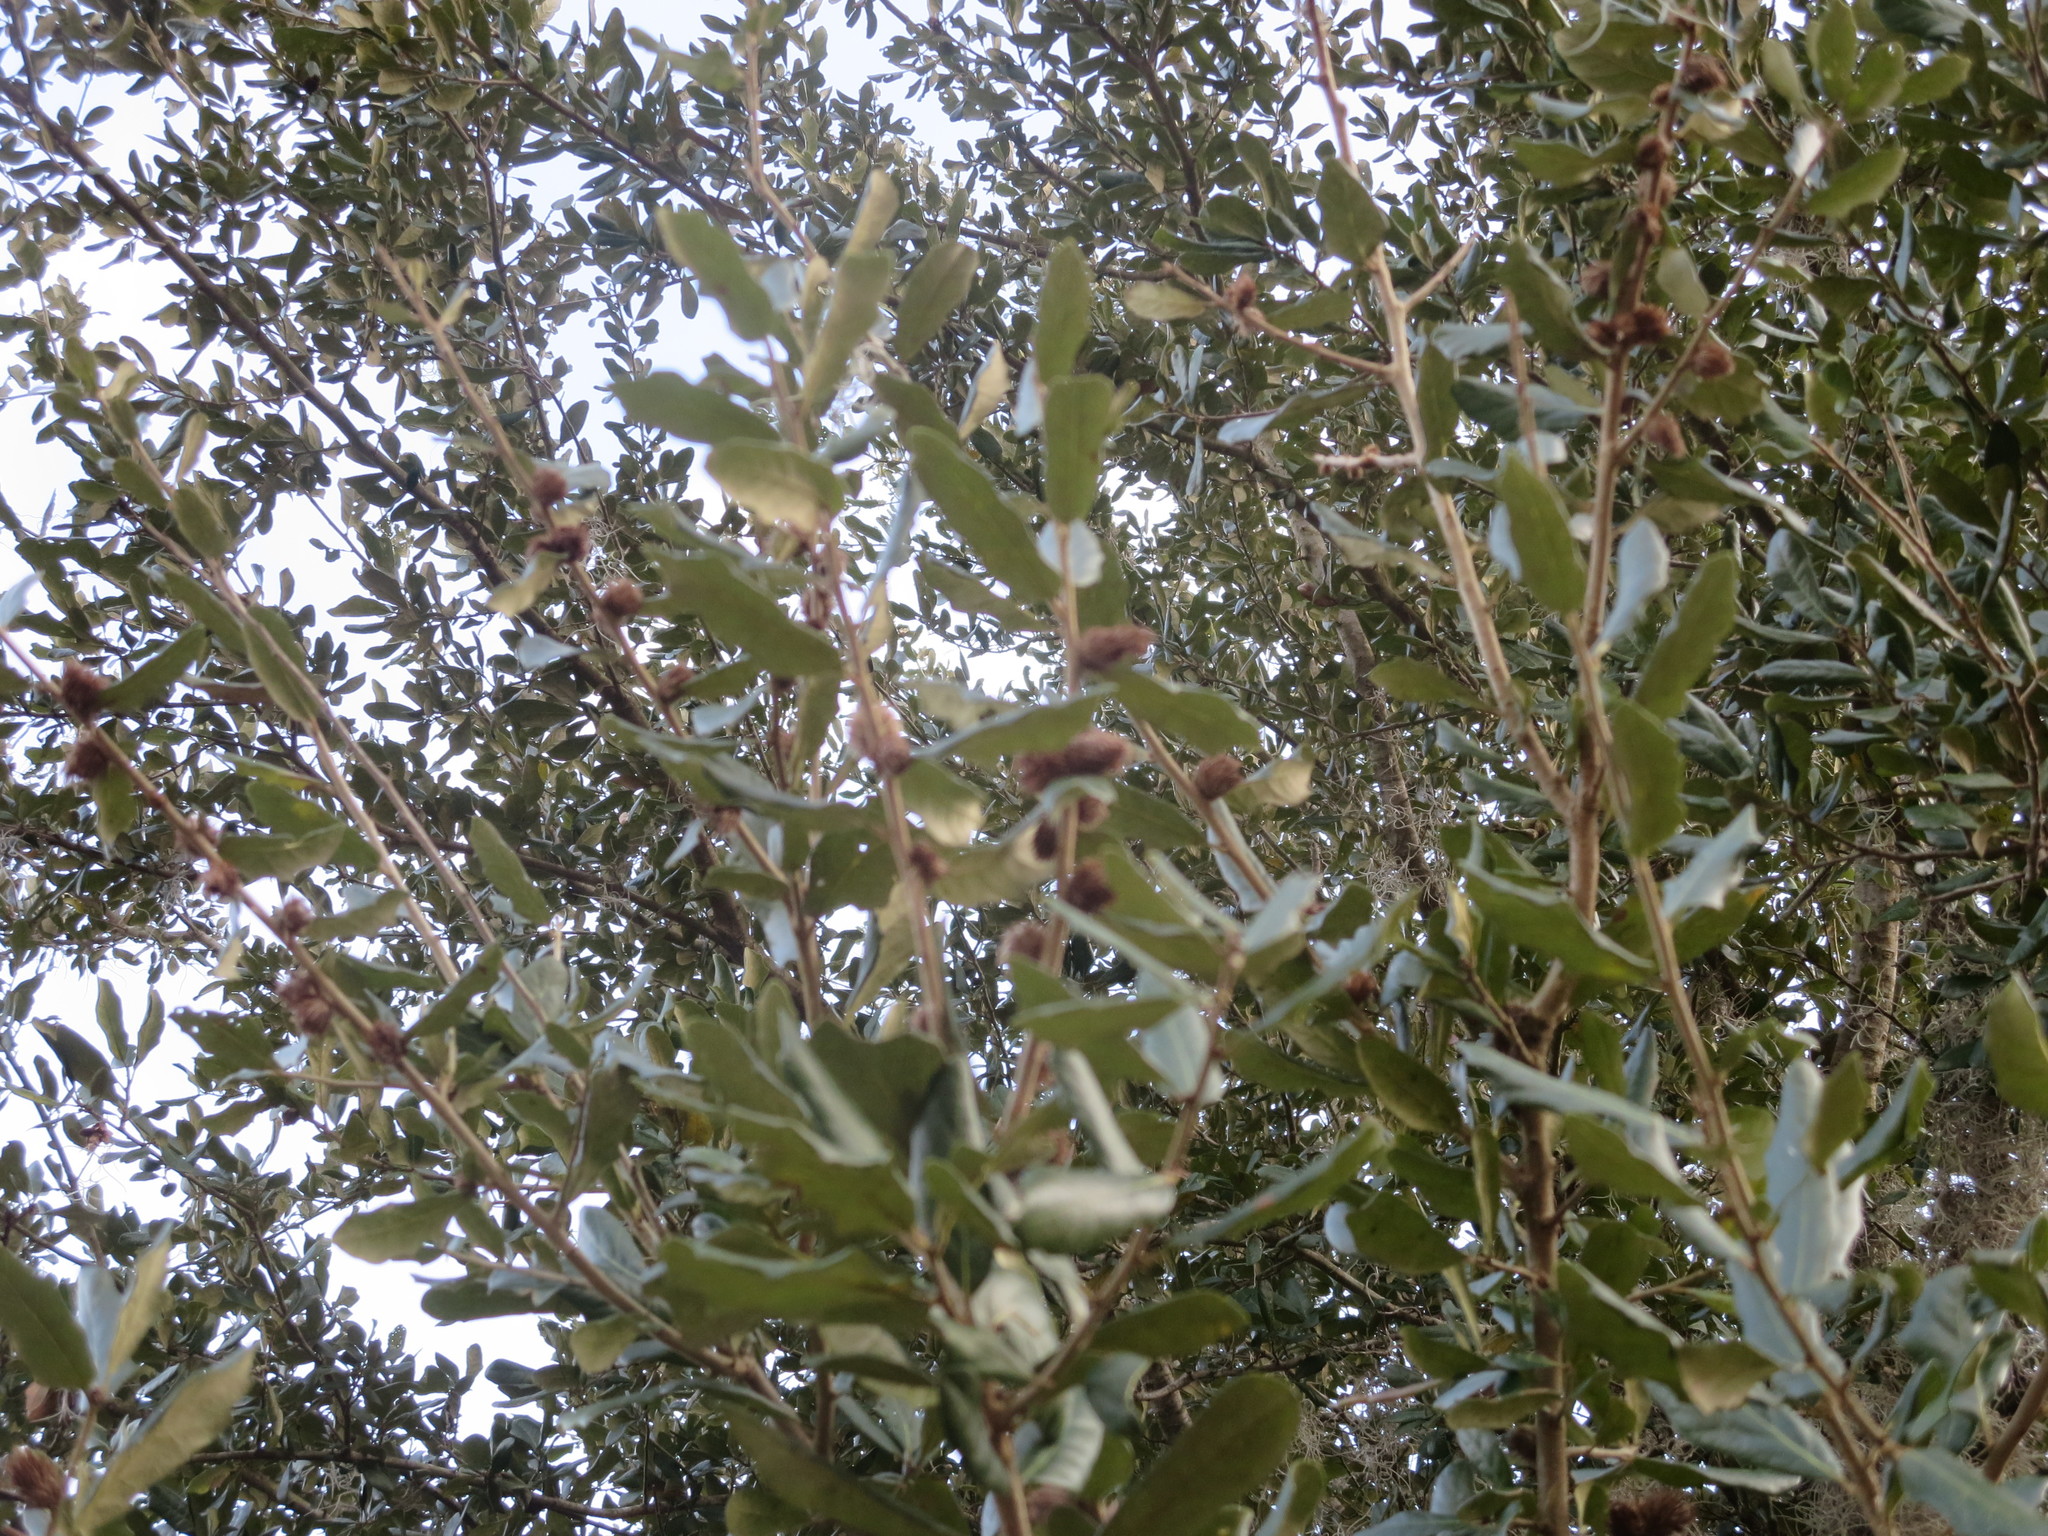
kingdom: Animalia
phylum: Arthropoda
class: Insecta
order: Hymenoptera
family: Cynipidae
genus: Andricus
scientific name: Andricus quercusfoliatus
